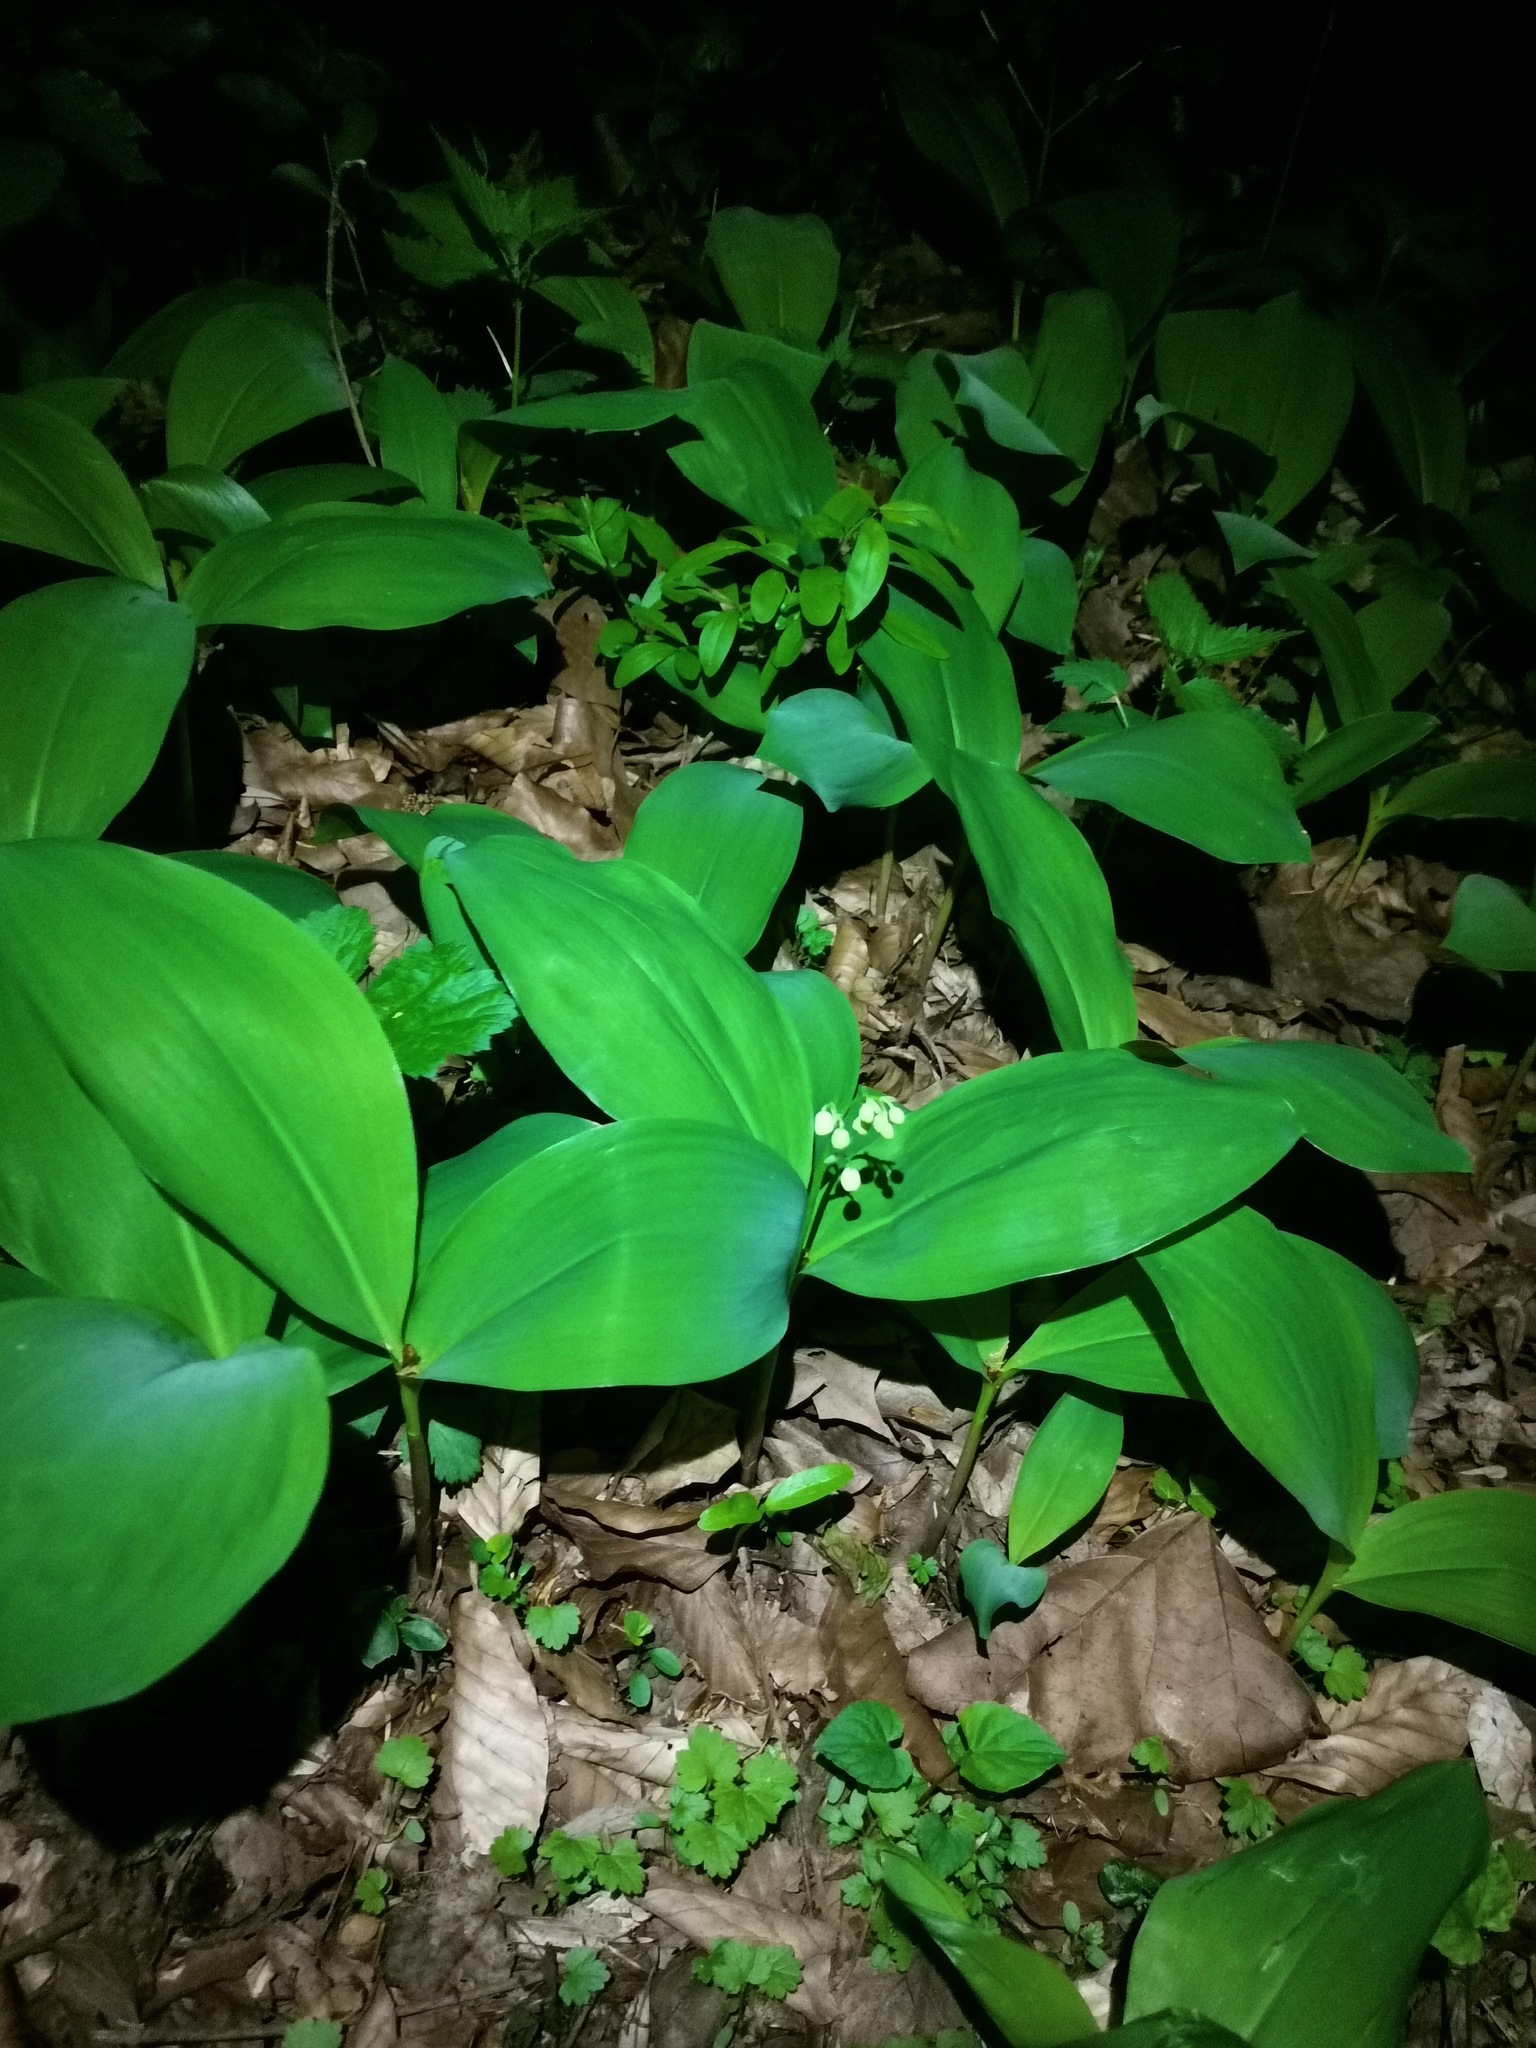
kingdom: Plantae
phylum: Tracheophyta
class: Liliopsida
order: Asparagales
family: Asparagaceae
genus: Convallaria
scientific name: Convallaria majalis
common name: Lily-of-the-valley
